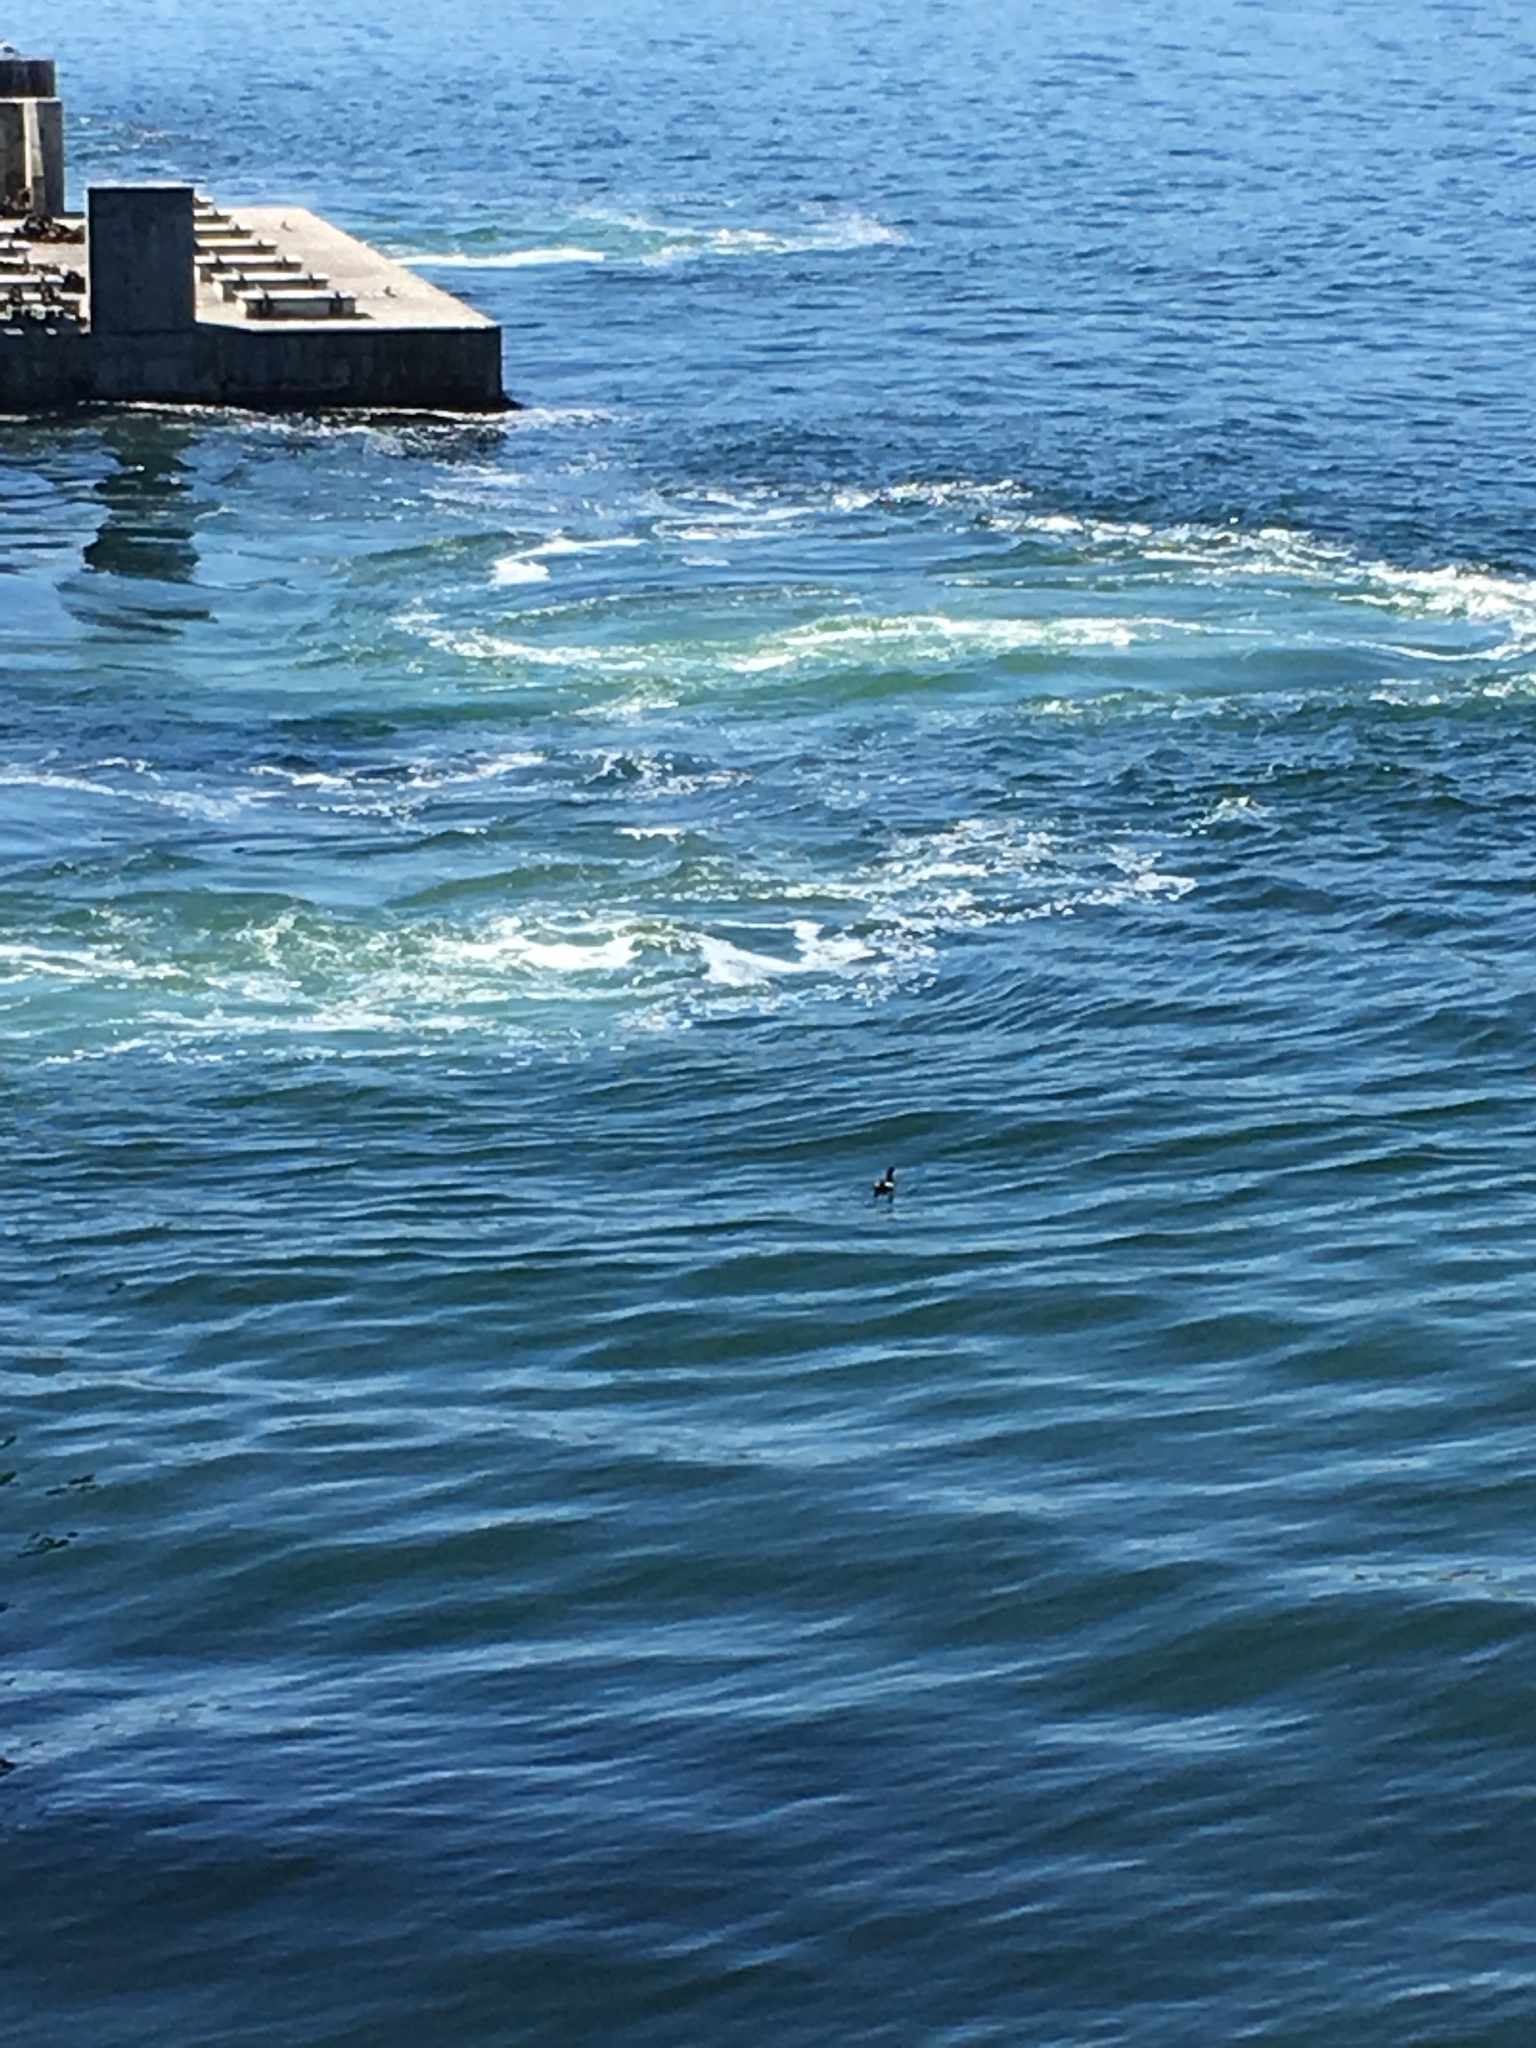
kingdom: Animalia
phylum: Chordata
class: Aves
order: Charadriiformes
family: Alcidae
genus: Cepphus
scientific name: Cepphus columba
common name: Pigeon guillemot
